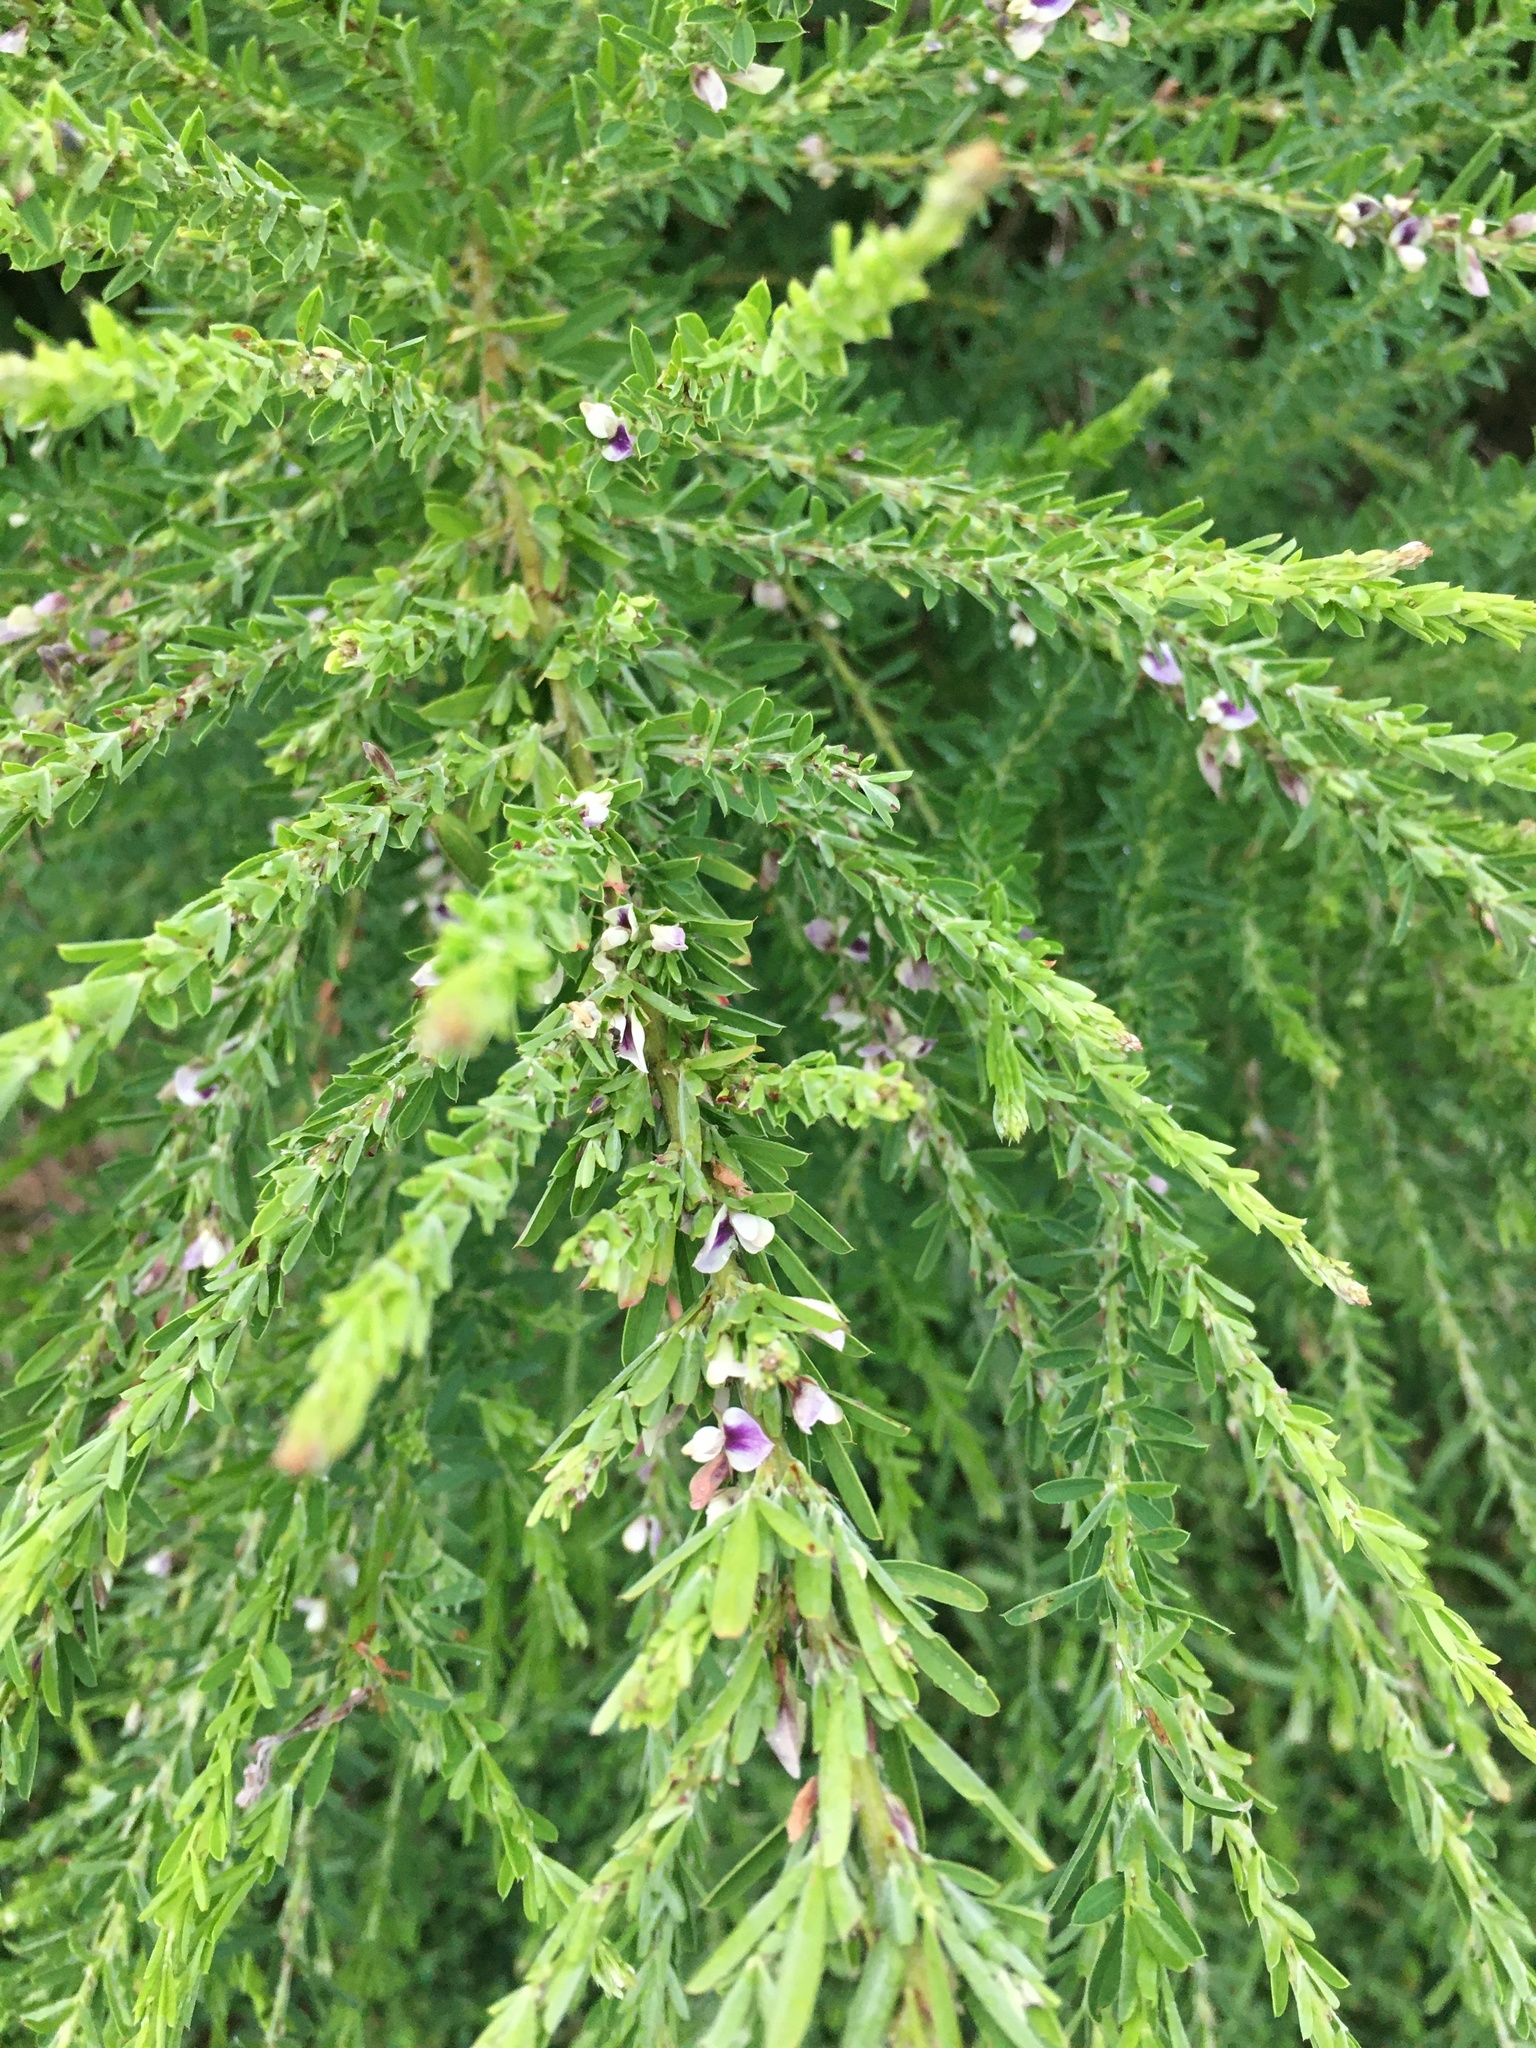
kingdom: Plantae
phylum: Tracheophyta
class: Magnoliopsida
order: Fabales
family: Fabaceae
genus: Lespedeza
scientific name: Lespedeza cuneata
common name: Chinese bush-clover
